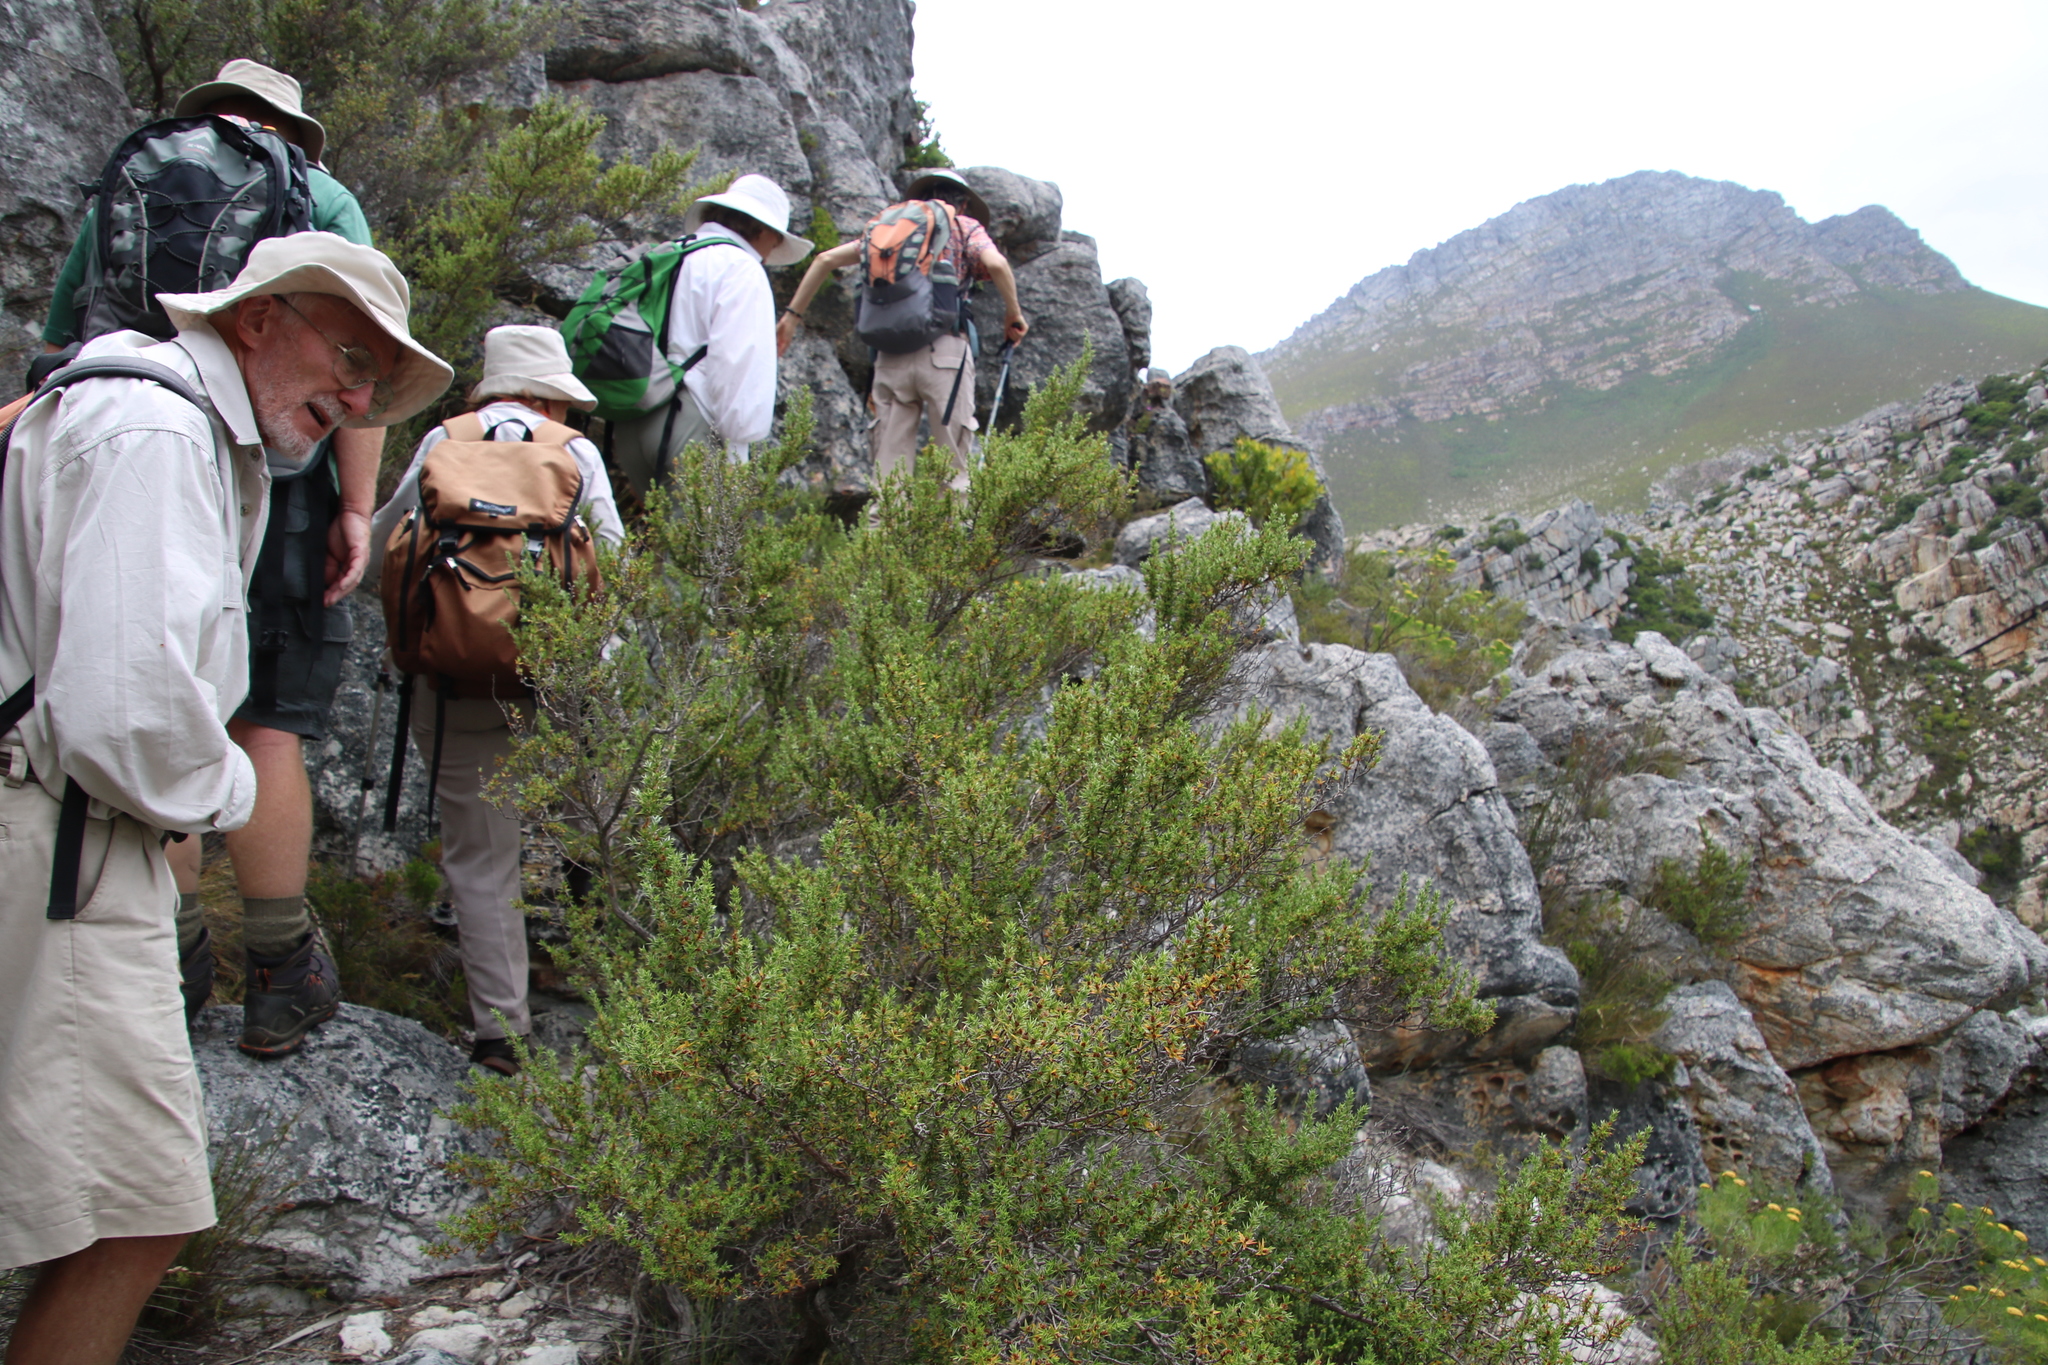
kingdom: Plantae
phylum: Tracheophyta
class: Magnoliopsida
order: Rosales
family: Rosaceae
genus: Cliffortia
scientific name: Cliffortia ruscifolia
